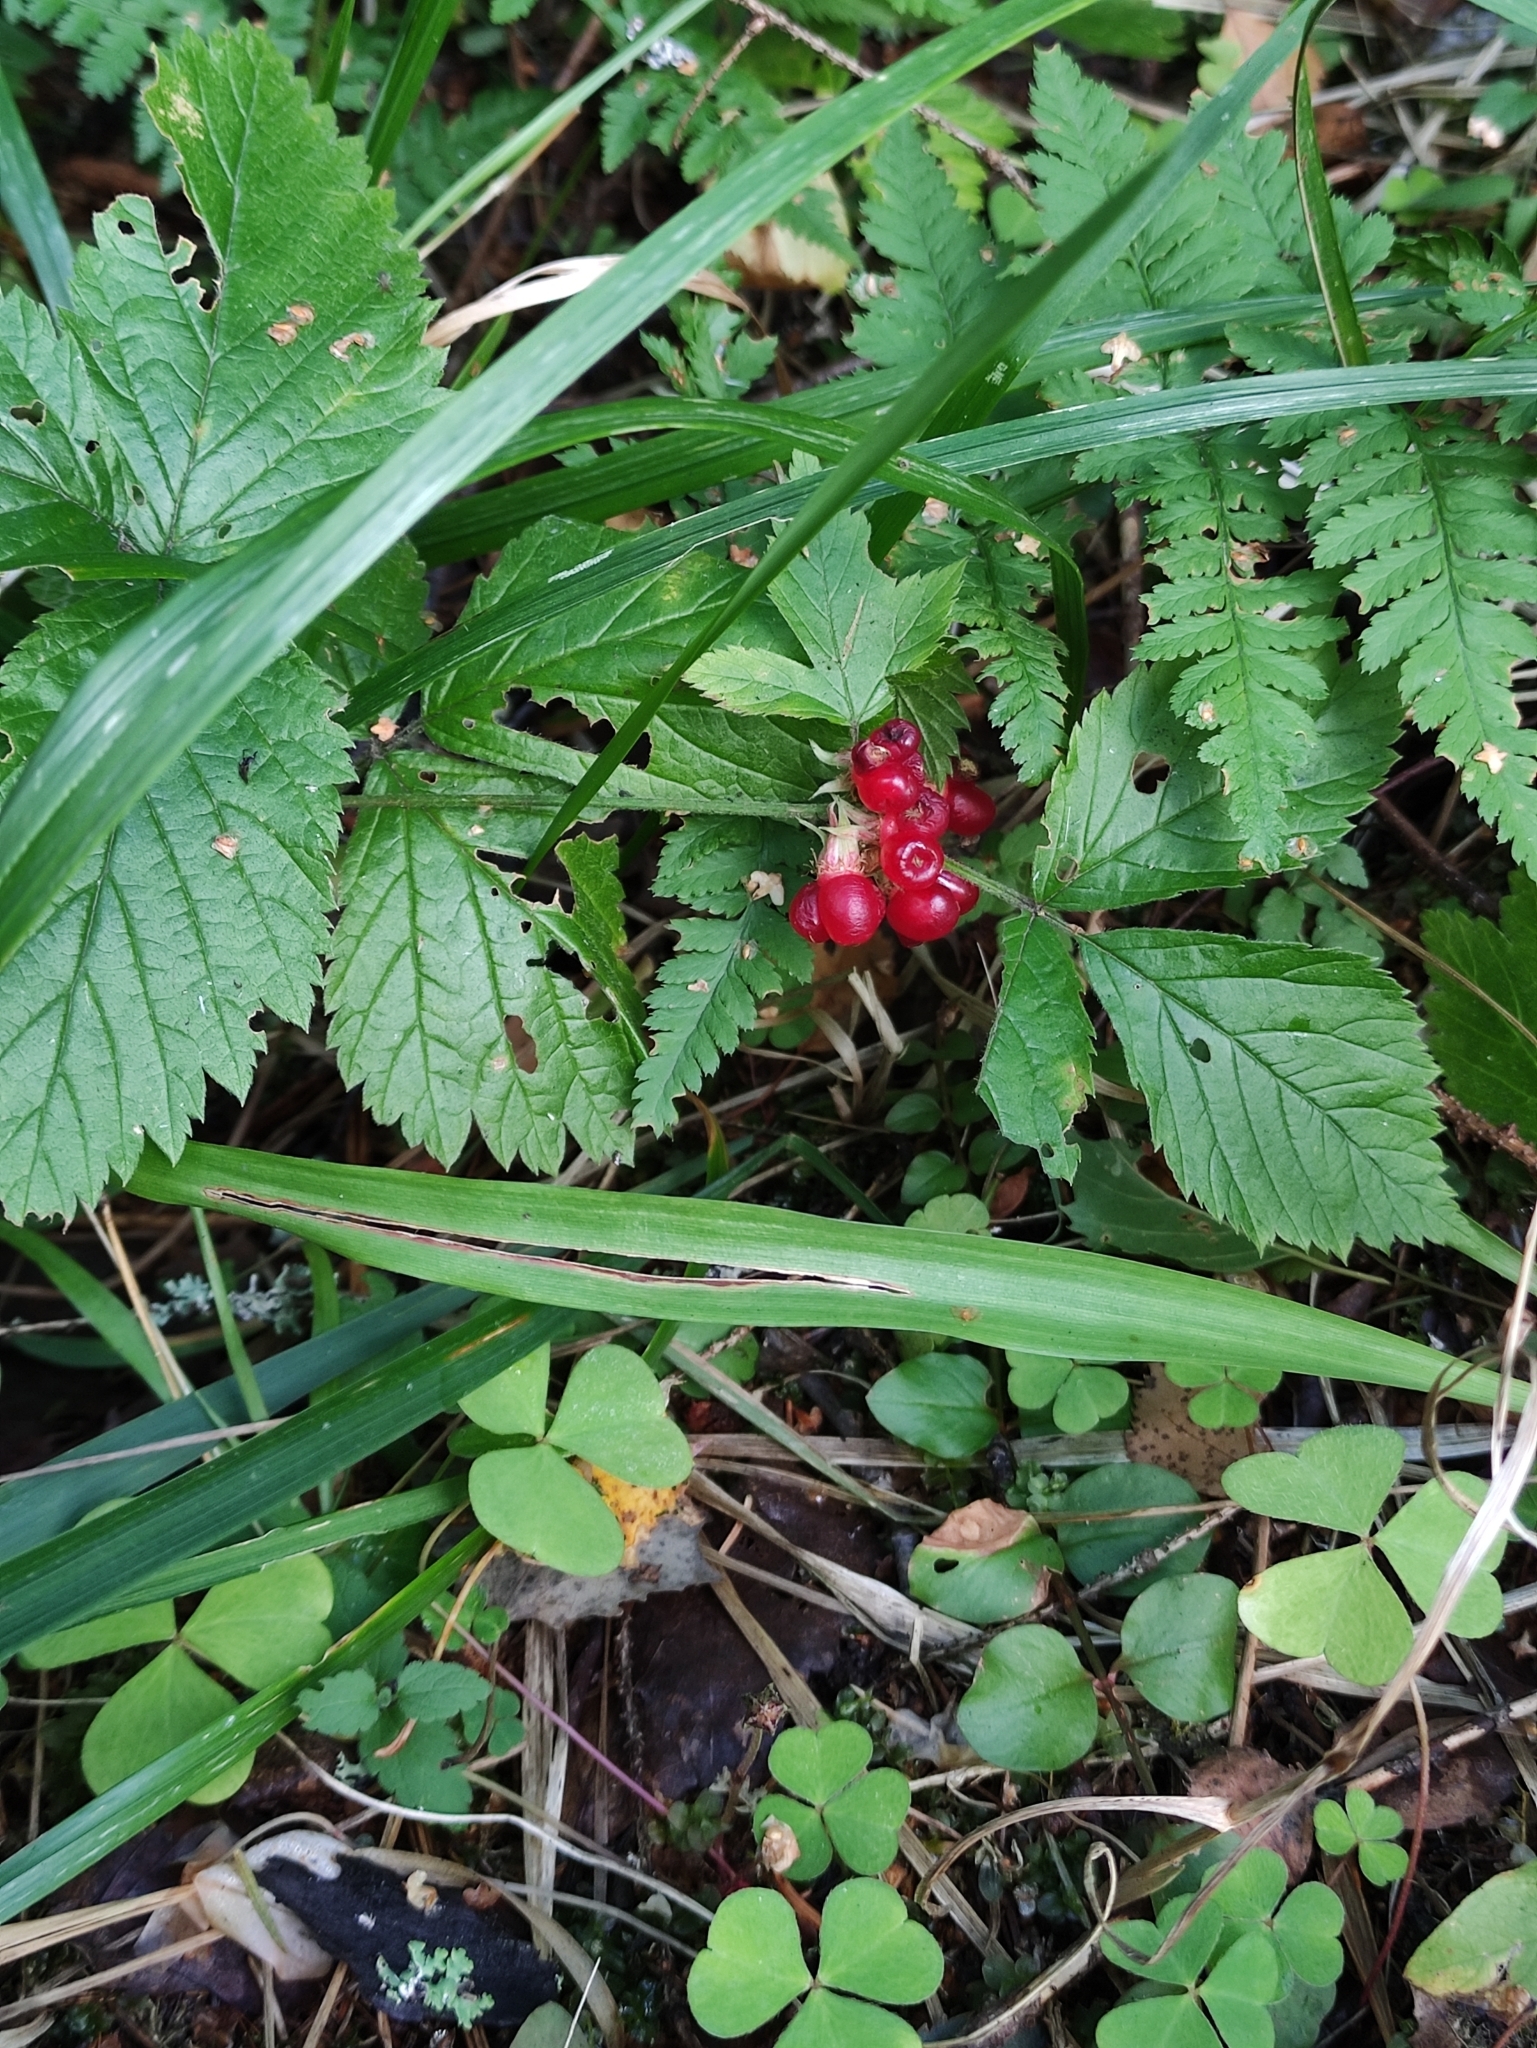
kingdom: Plantae
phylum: Tracheophyta
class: Magnoliopsida
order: Rosales
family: Rosaceae
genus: Rubus
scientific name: Rubus saxatilis
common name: Stone bramble
